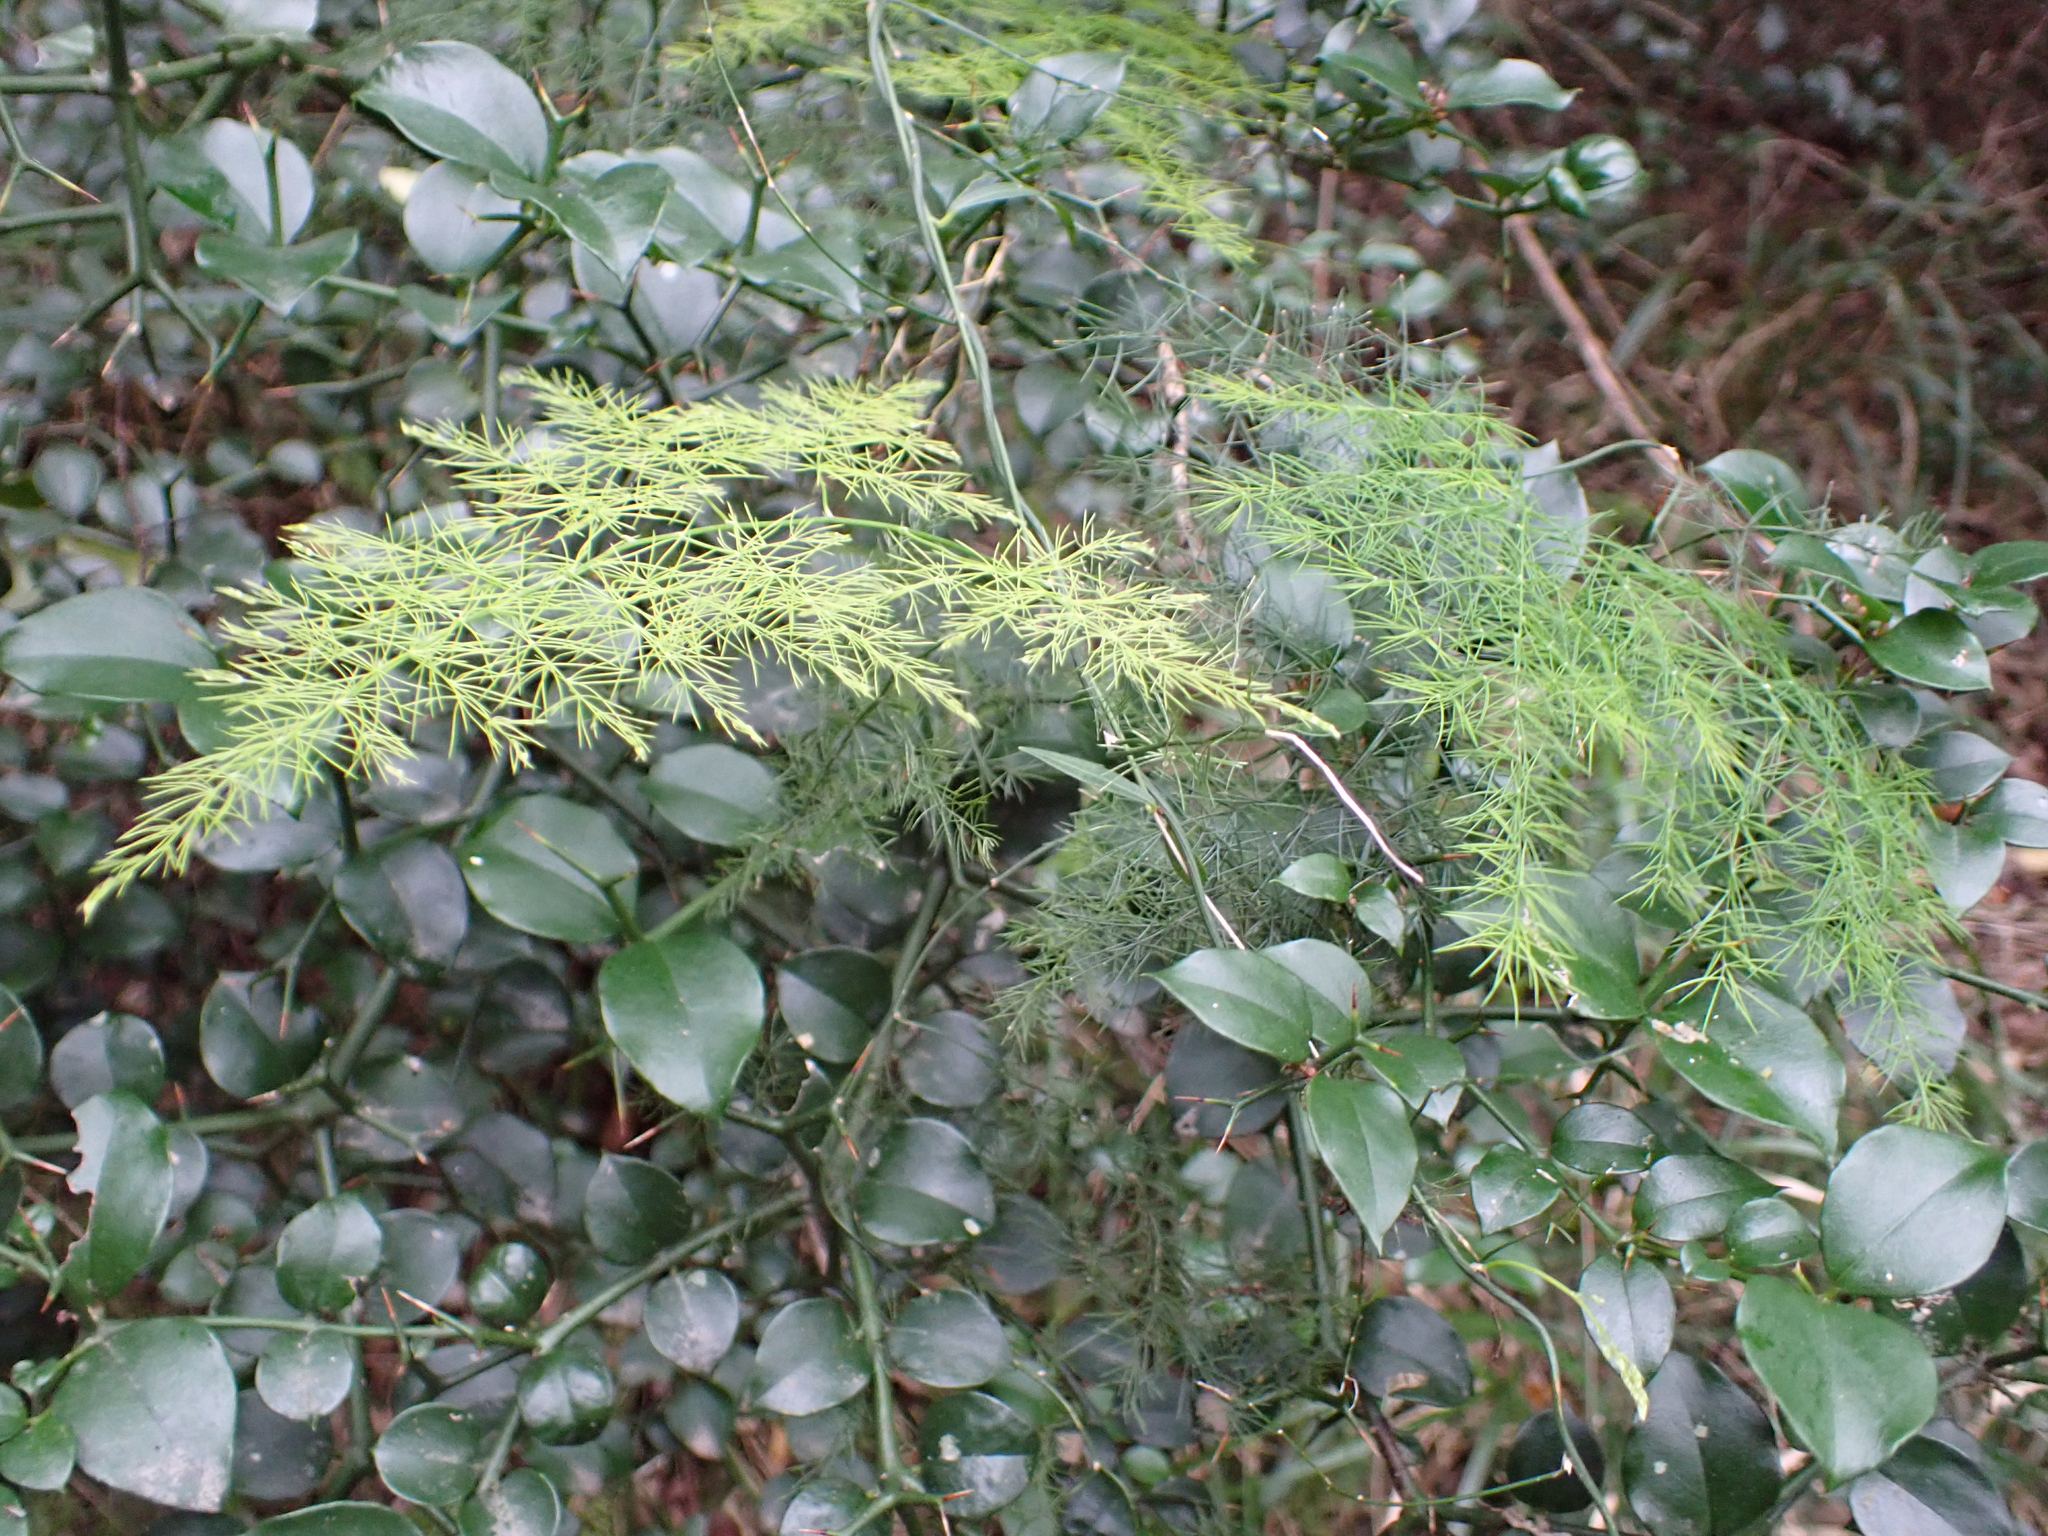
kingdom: Plantae
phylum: Tracheophyta
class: Liliopsida
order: Asparagales
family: Asparagaceae
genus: Asparagus
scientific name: Asparagus setaceus
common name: Common asparagus fern
